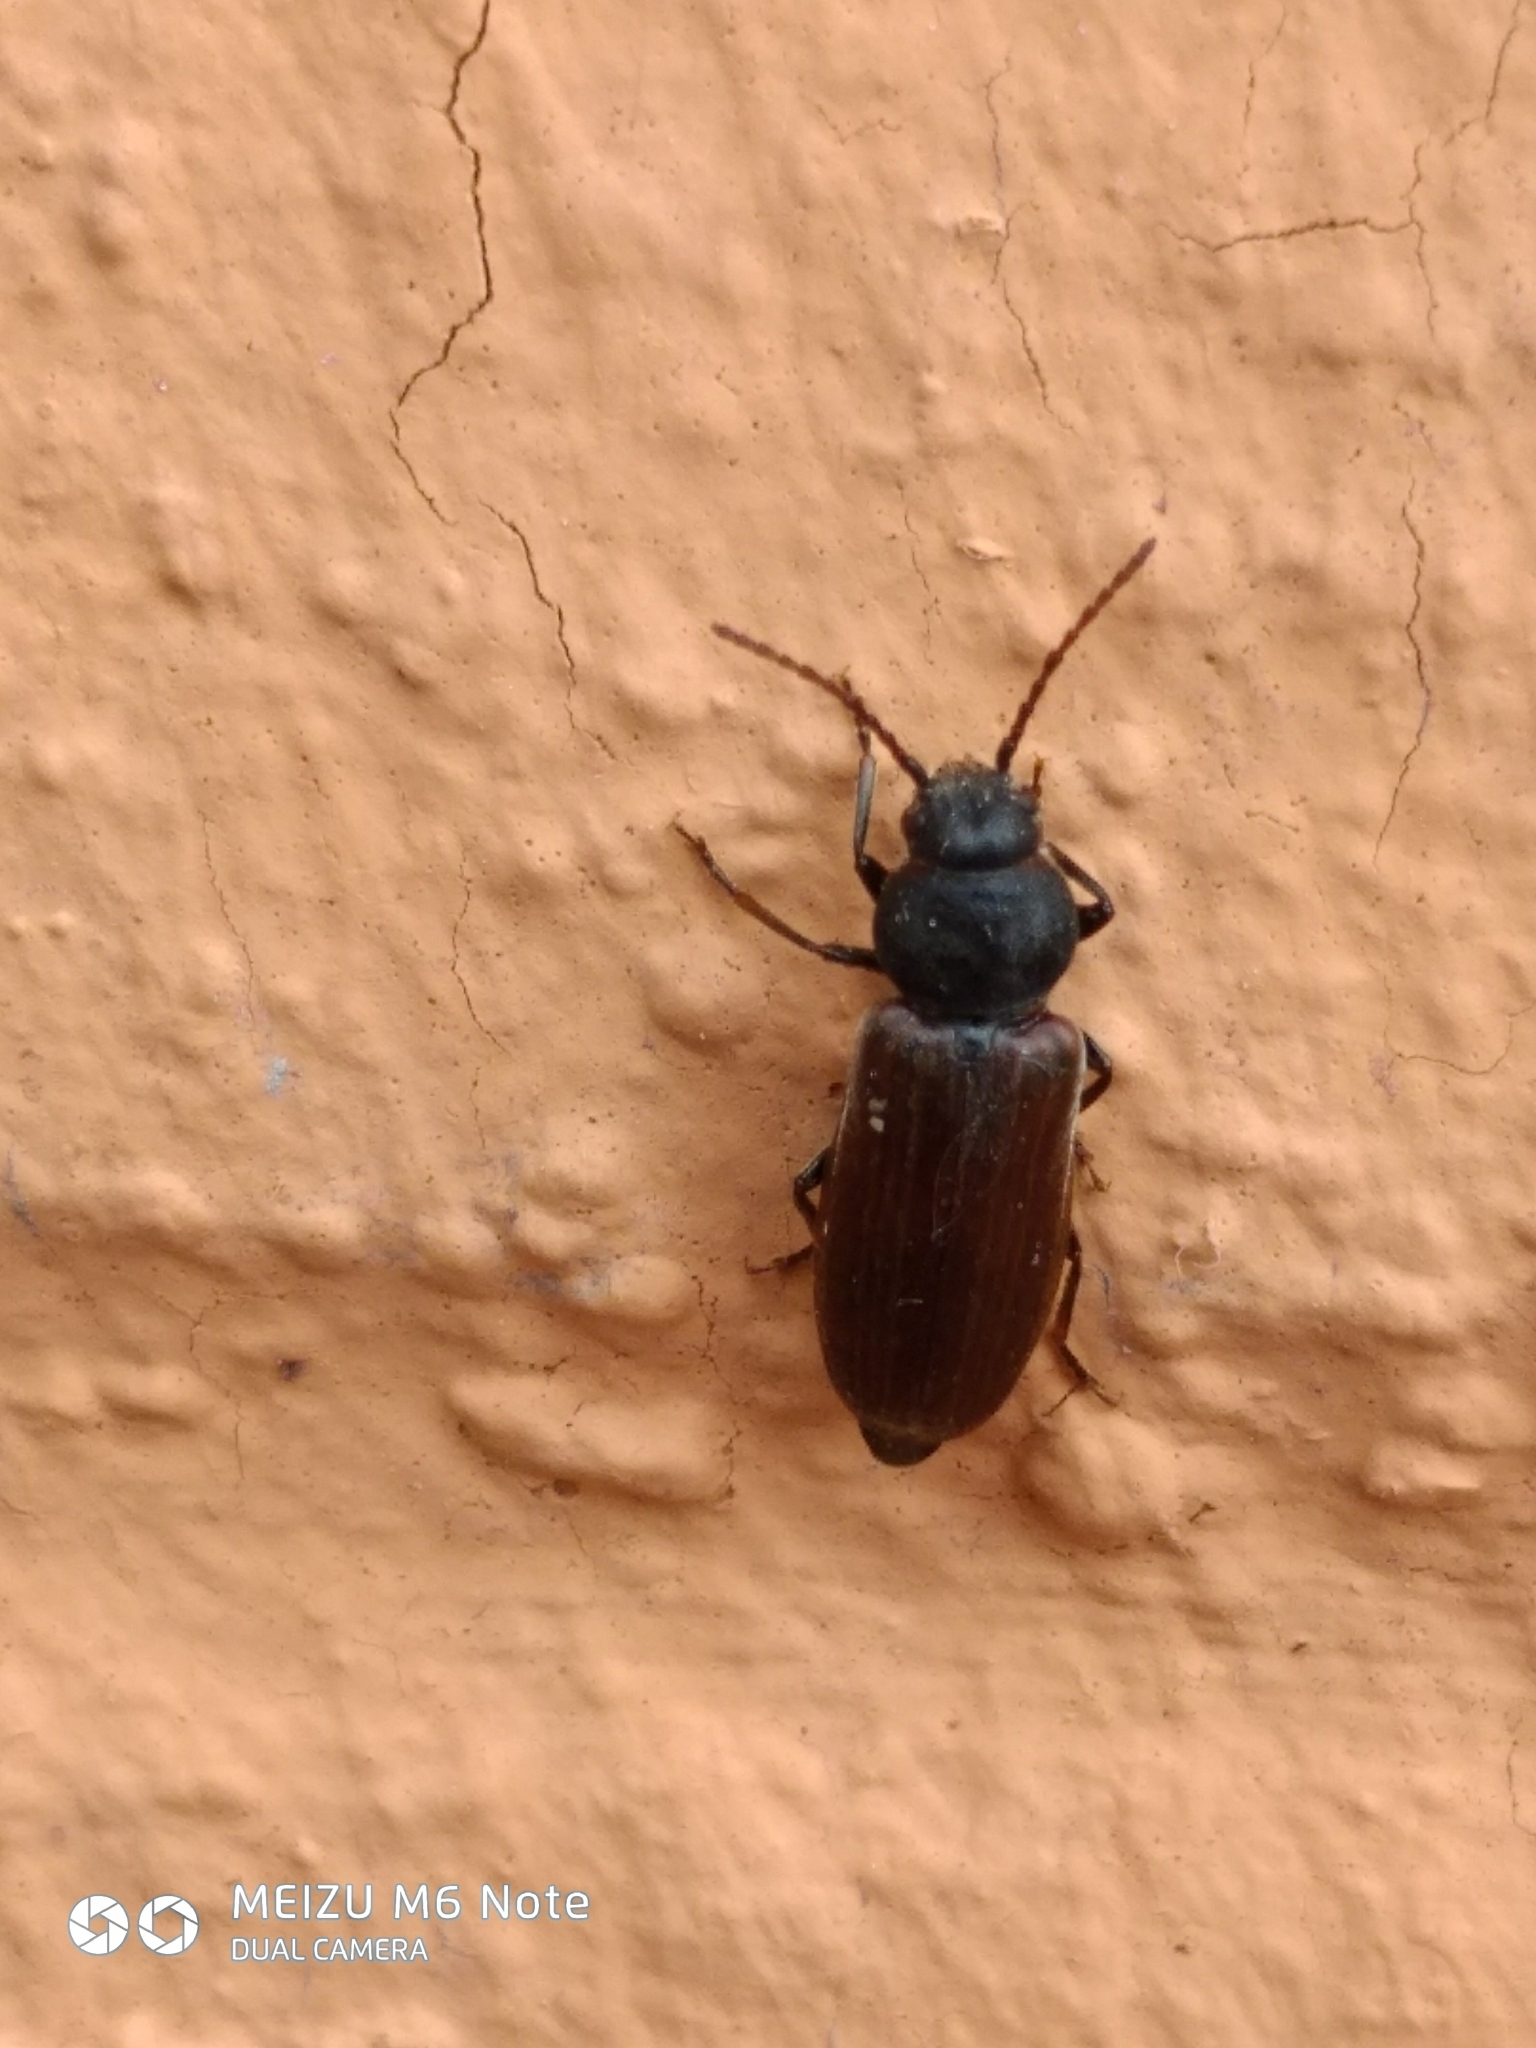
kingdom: Animalia
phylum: Arthropoda
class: Insecta
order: Coleoptera
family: Cerambycidae
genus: Asemum
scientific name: Asemum striatum
